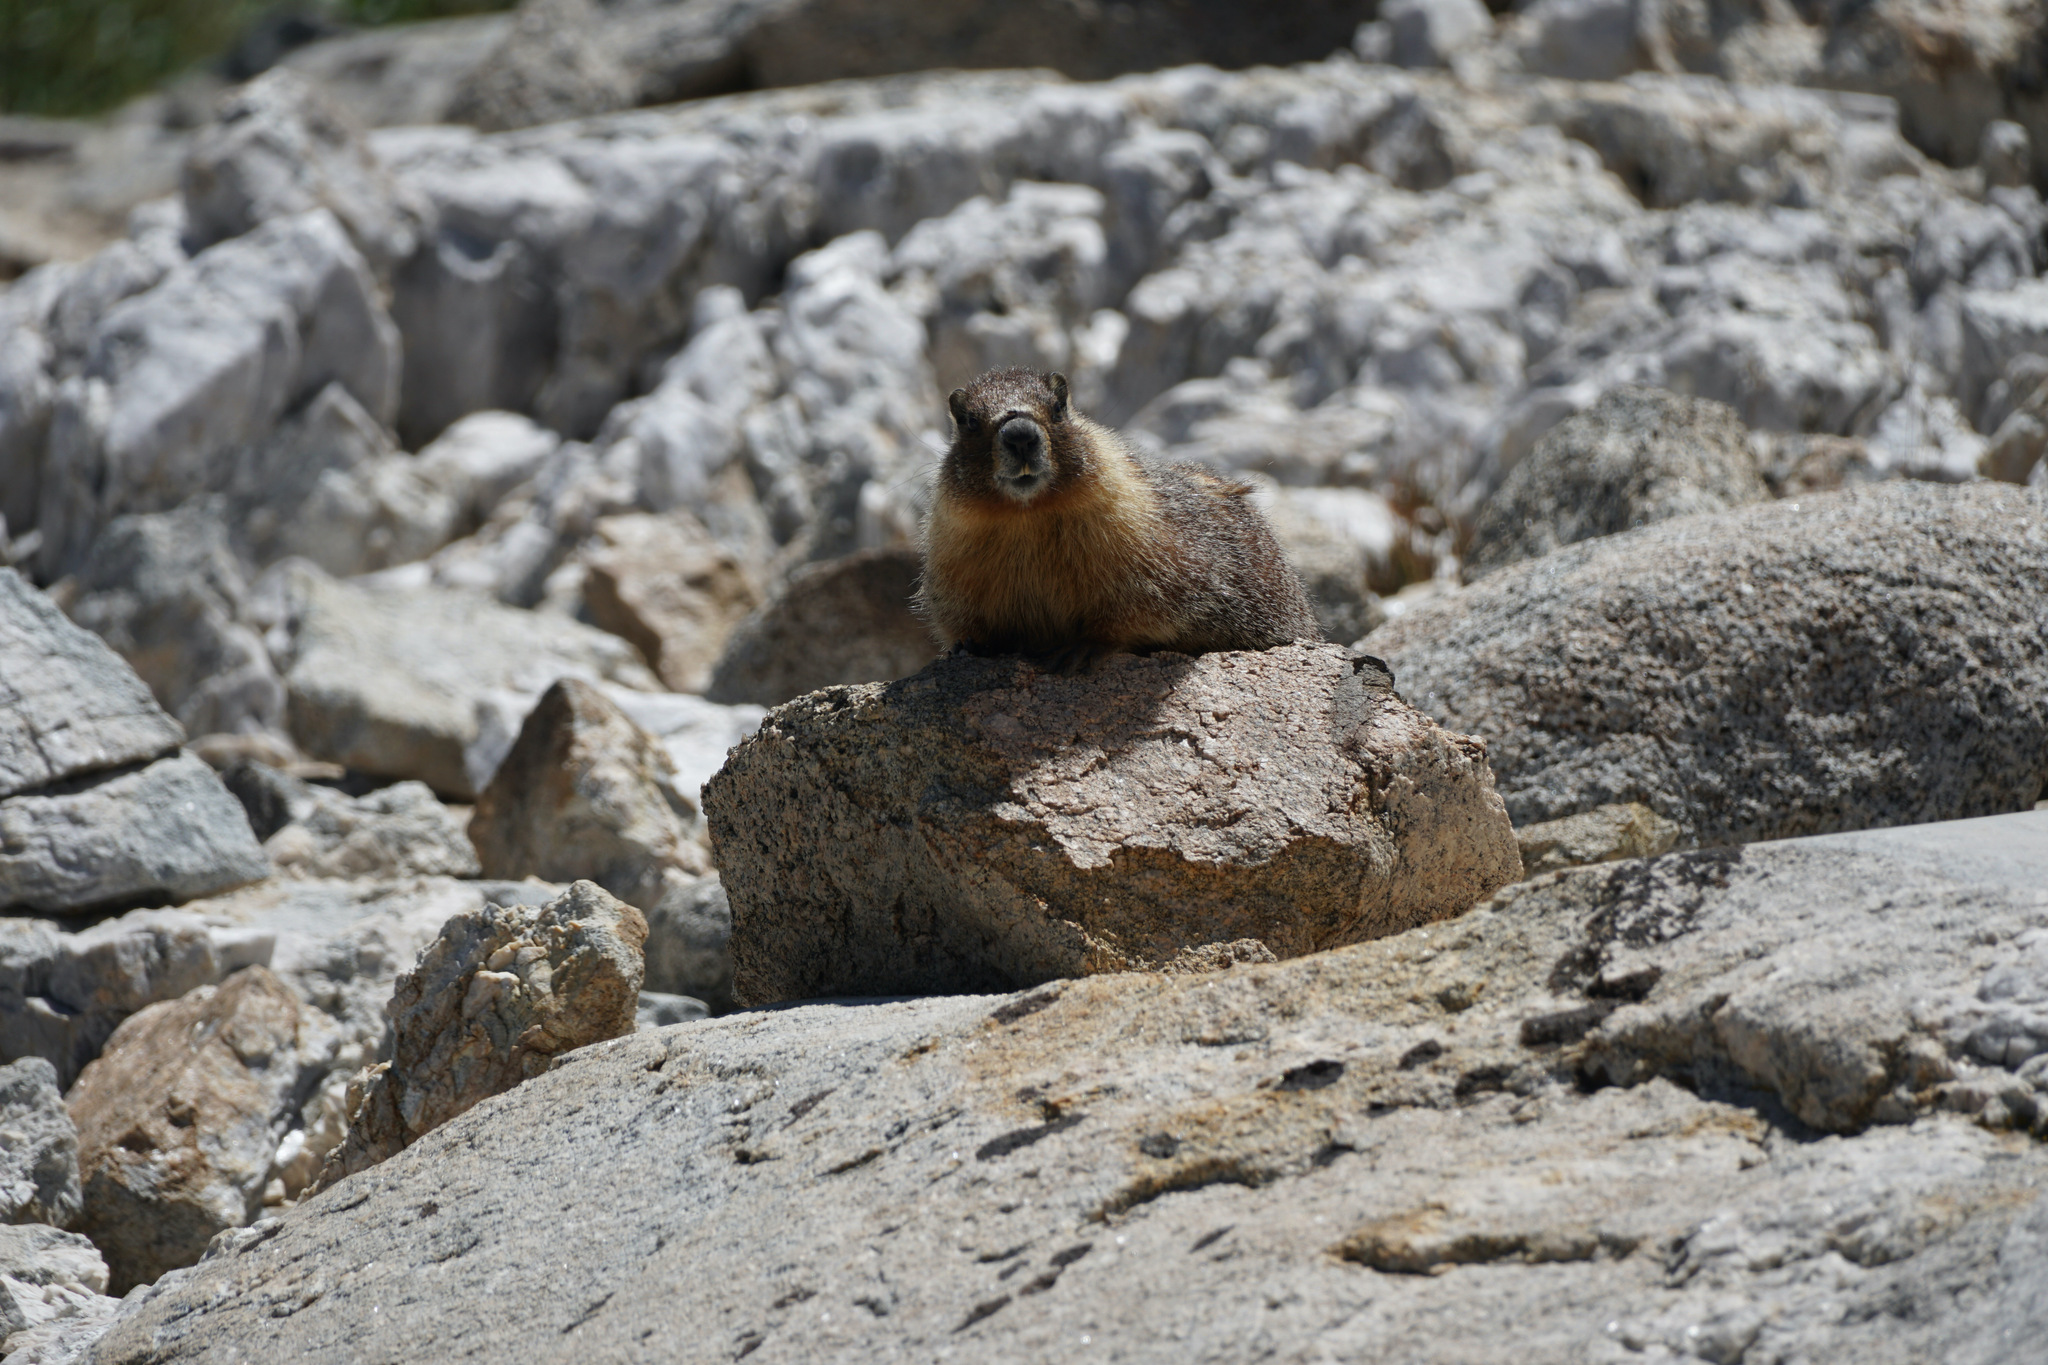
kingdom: Animalia
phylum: Chordata
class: Mammalia
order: Rodentia
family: Sciuridae
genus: Marmota
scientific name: Marmota flaviventris
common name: Yellow-bellied marmot
